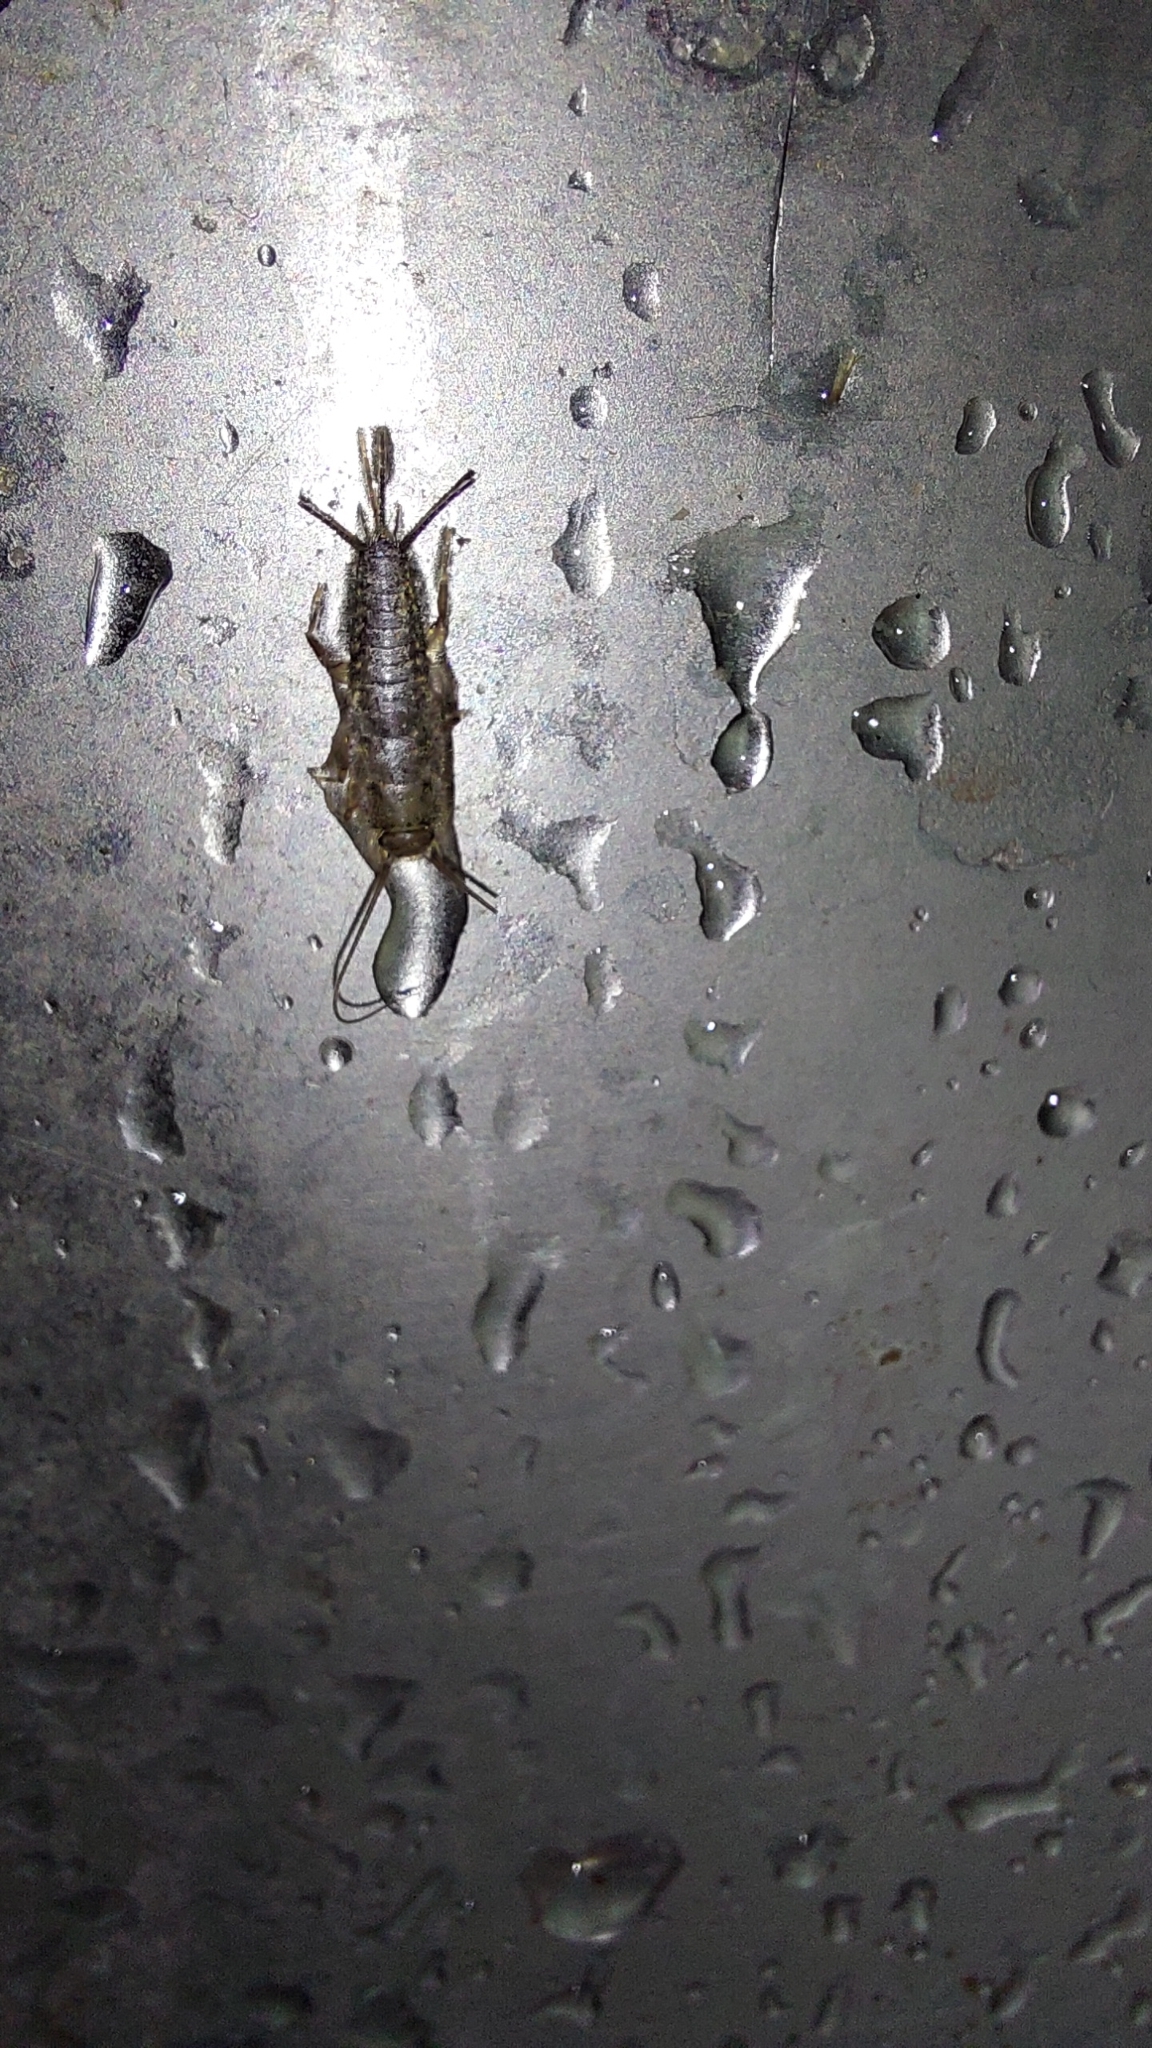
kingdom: Animalia
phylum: Arthropoda
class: Insecta
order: Zygentoma
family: Lepismatidae
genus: Ctenolepisma
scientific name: Ctenolepisma lineata
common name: Four-lined silverfish
